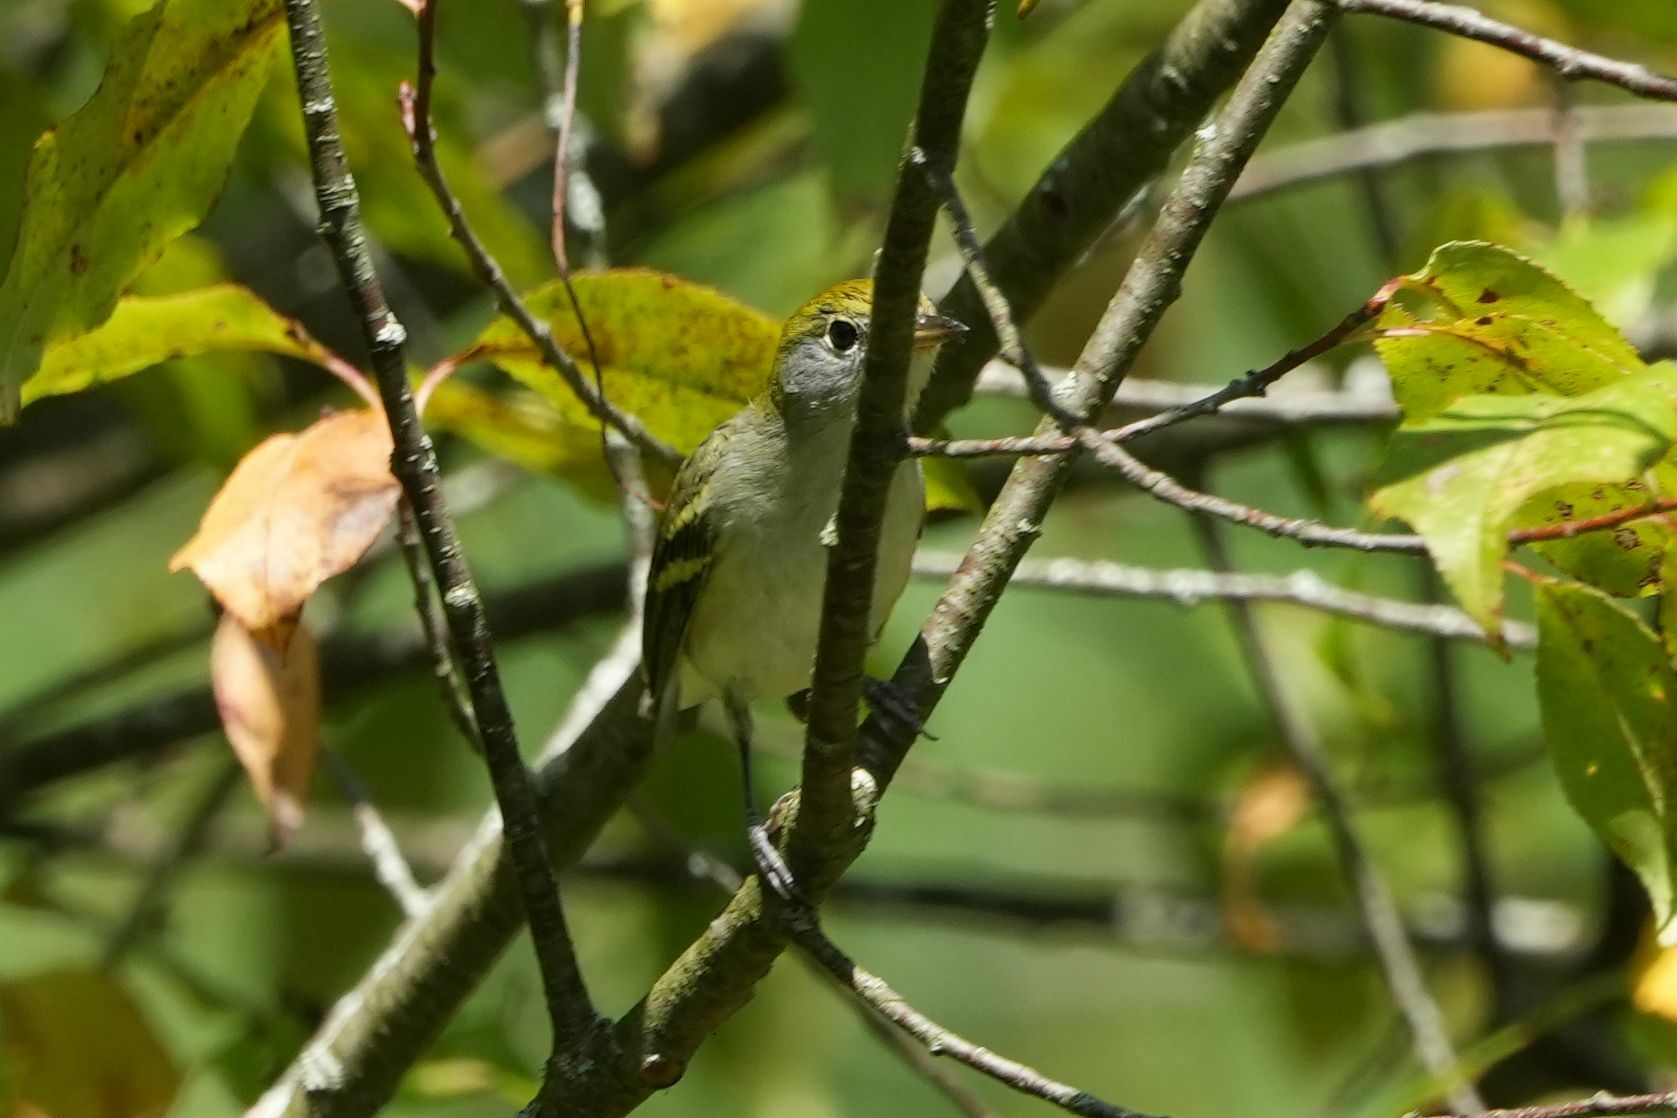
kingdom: Animalia
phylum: Chordata
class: Aves
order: Passeriformes
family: Parulidae
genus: Setophaga
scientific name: Setophaga pensylvanica
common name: Chestnut-sided warbler
